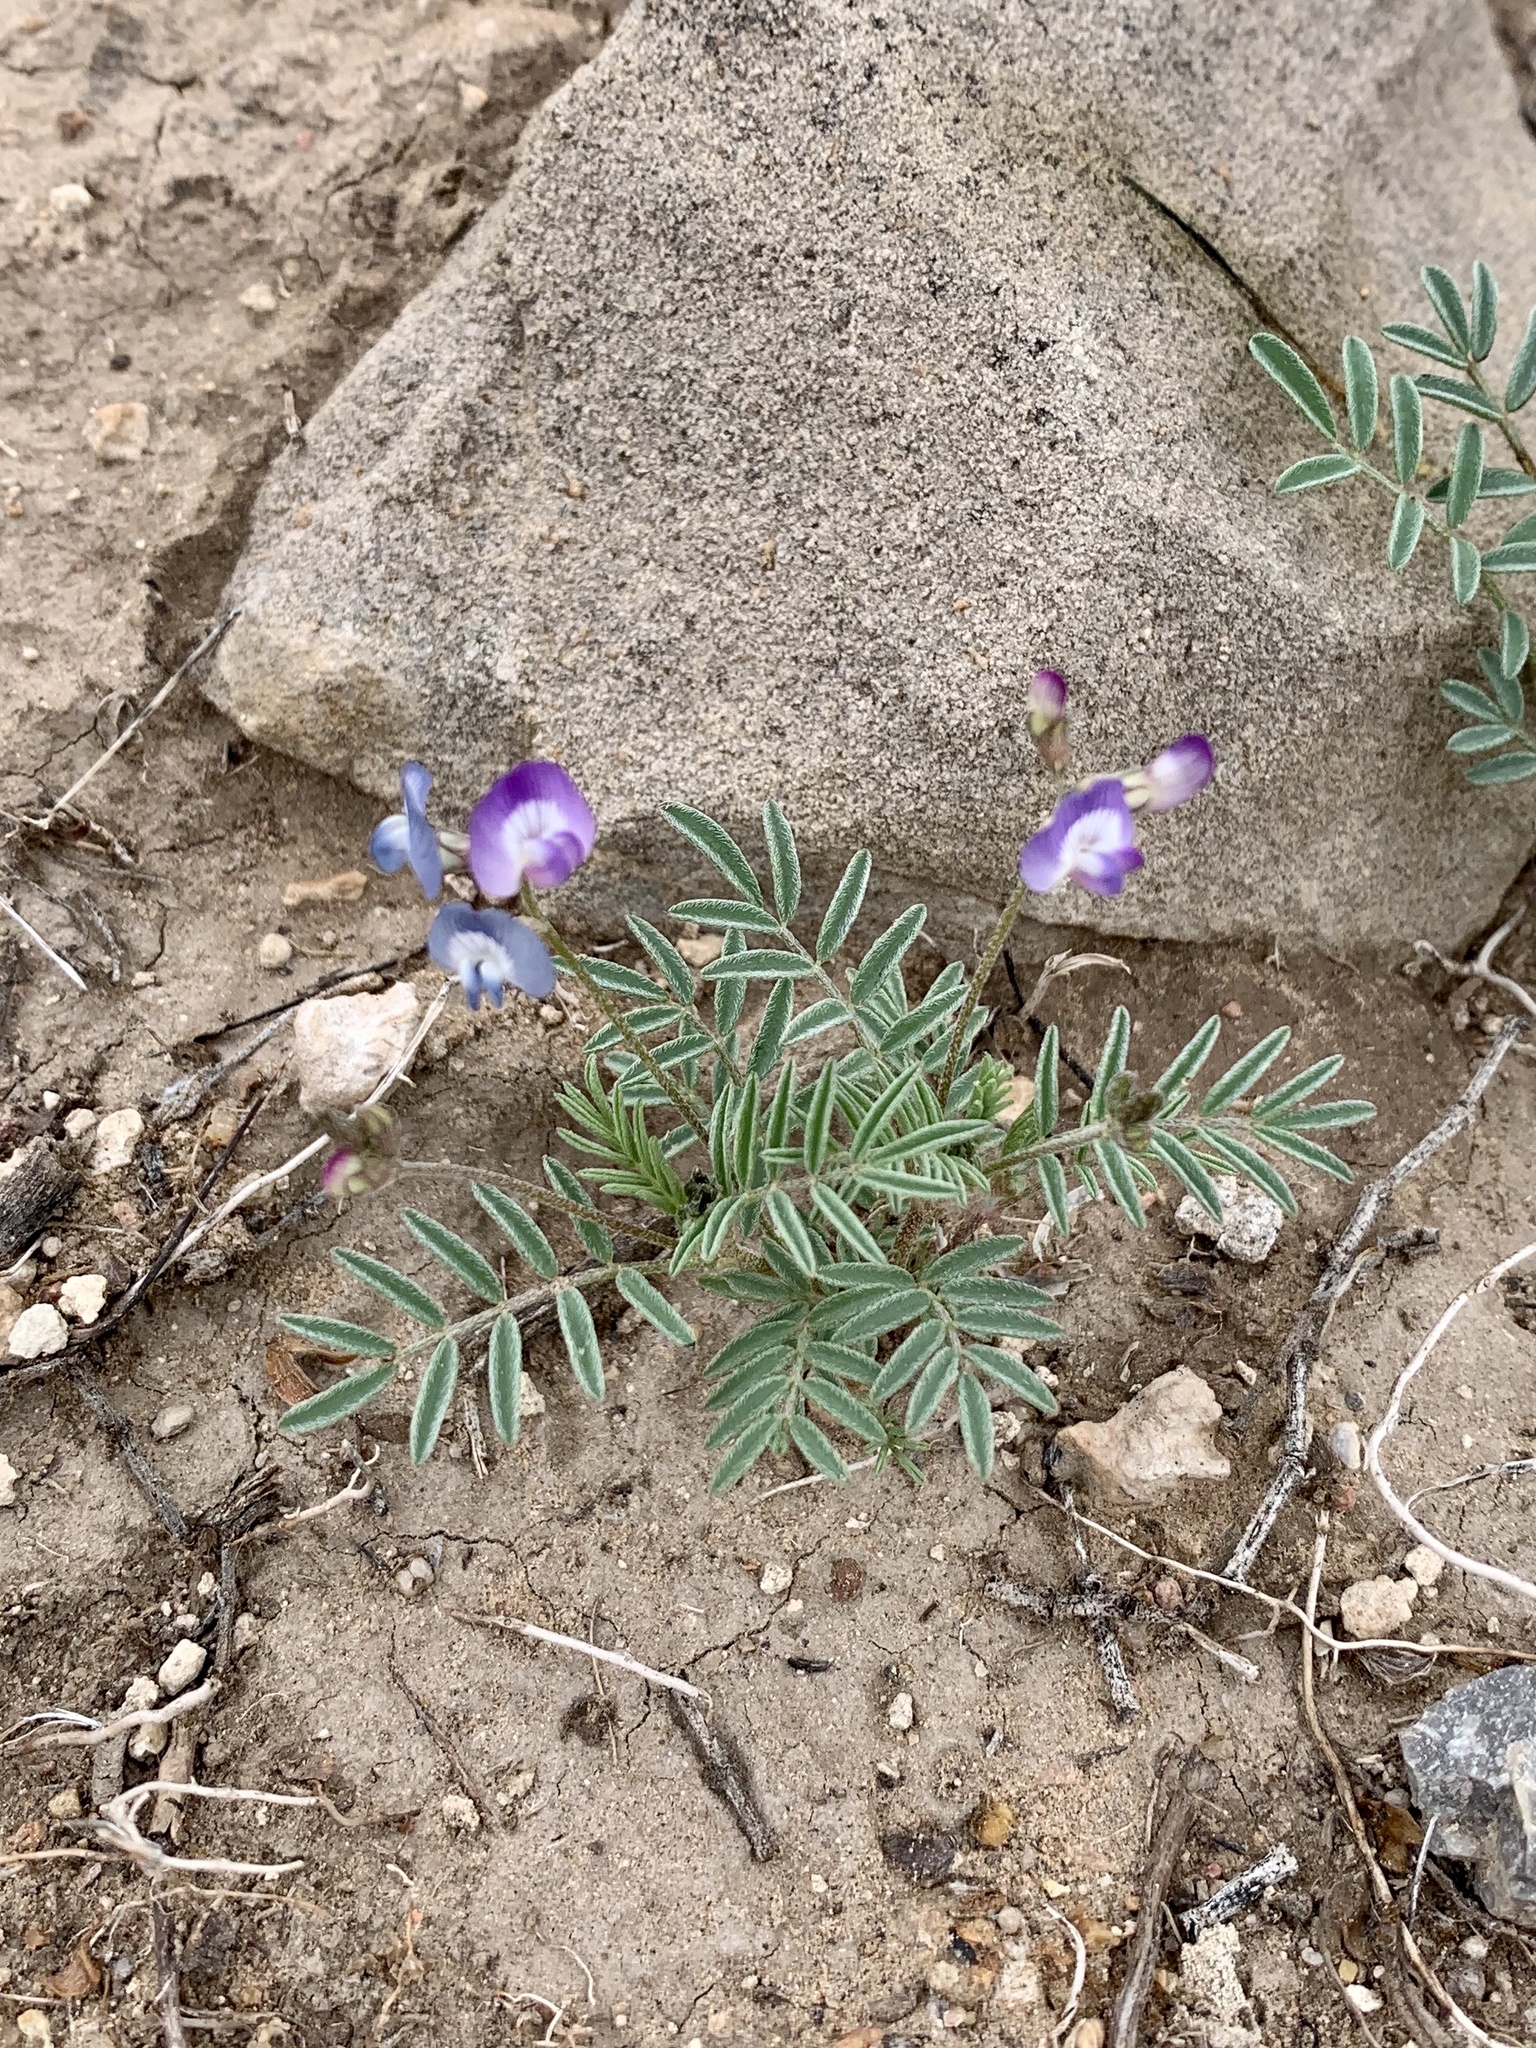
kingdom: Plantae
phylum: Tracheophyta
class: Magnoliopsida
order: Fabales
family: Fabaceae
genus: Astragalus
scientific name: Astragalus nuttallianus
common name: Smallflowered milkvetch
